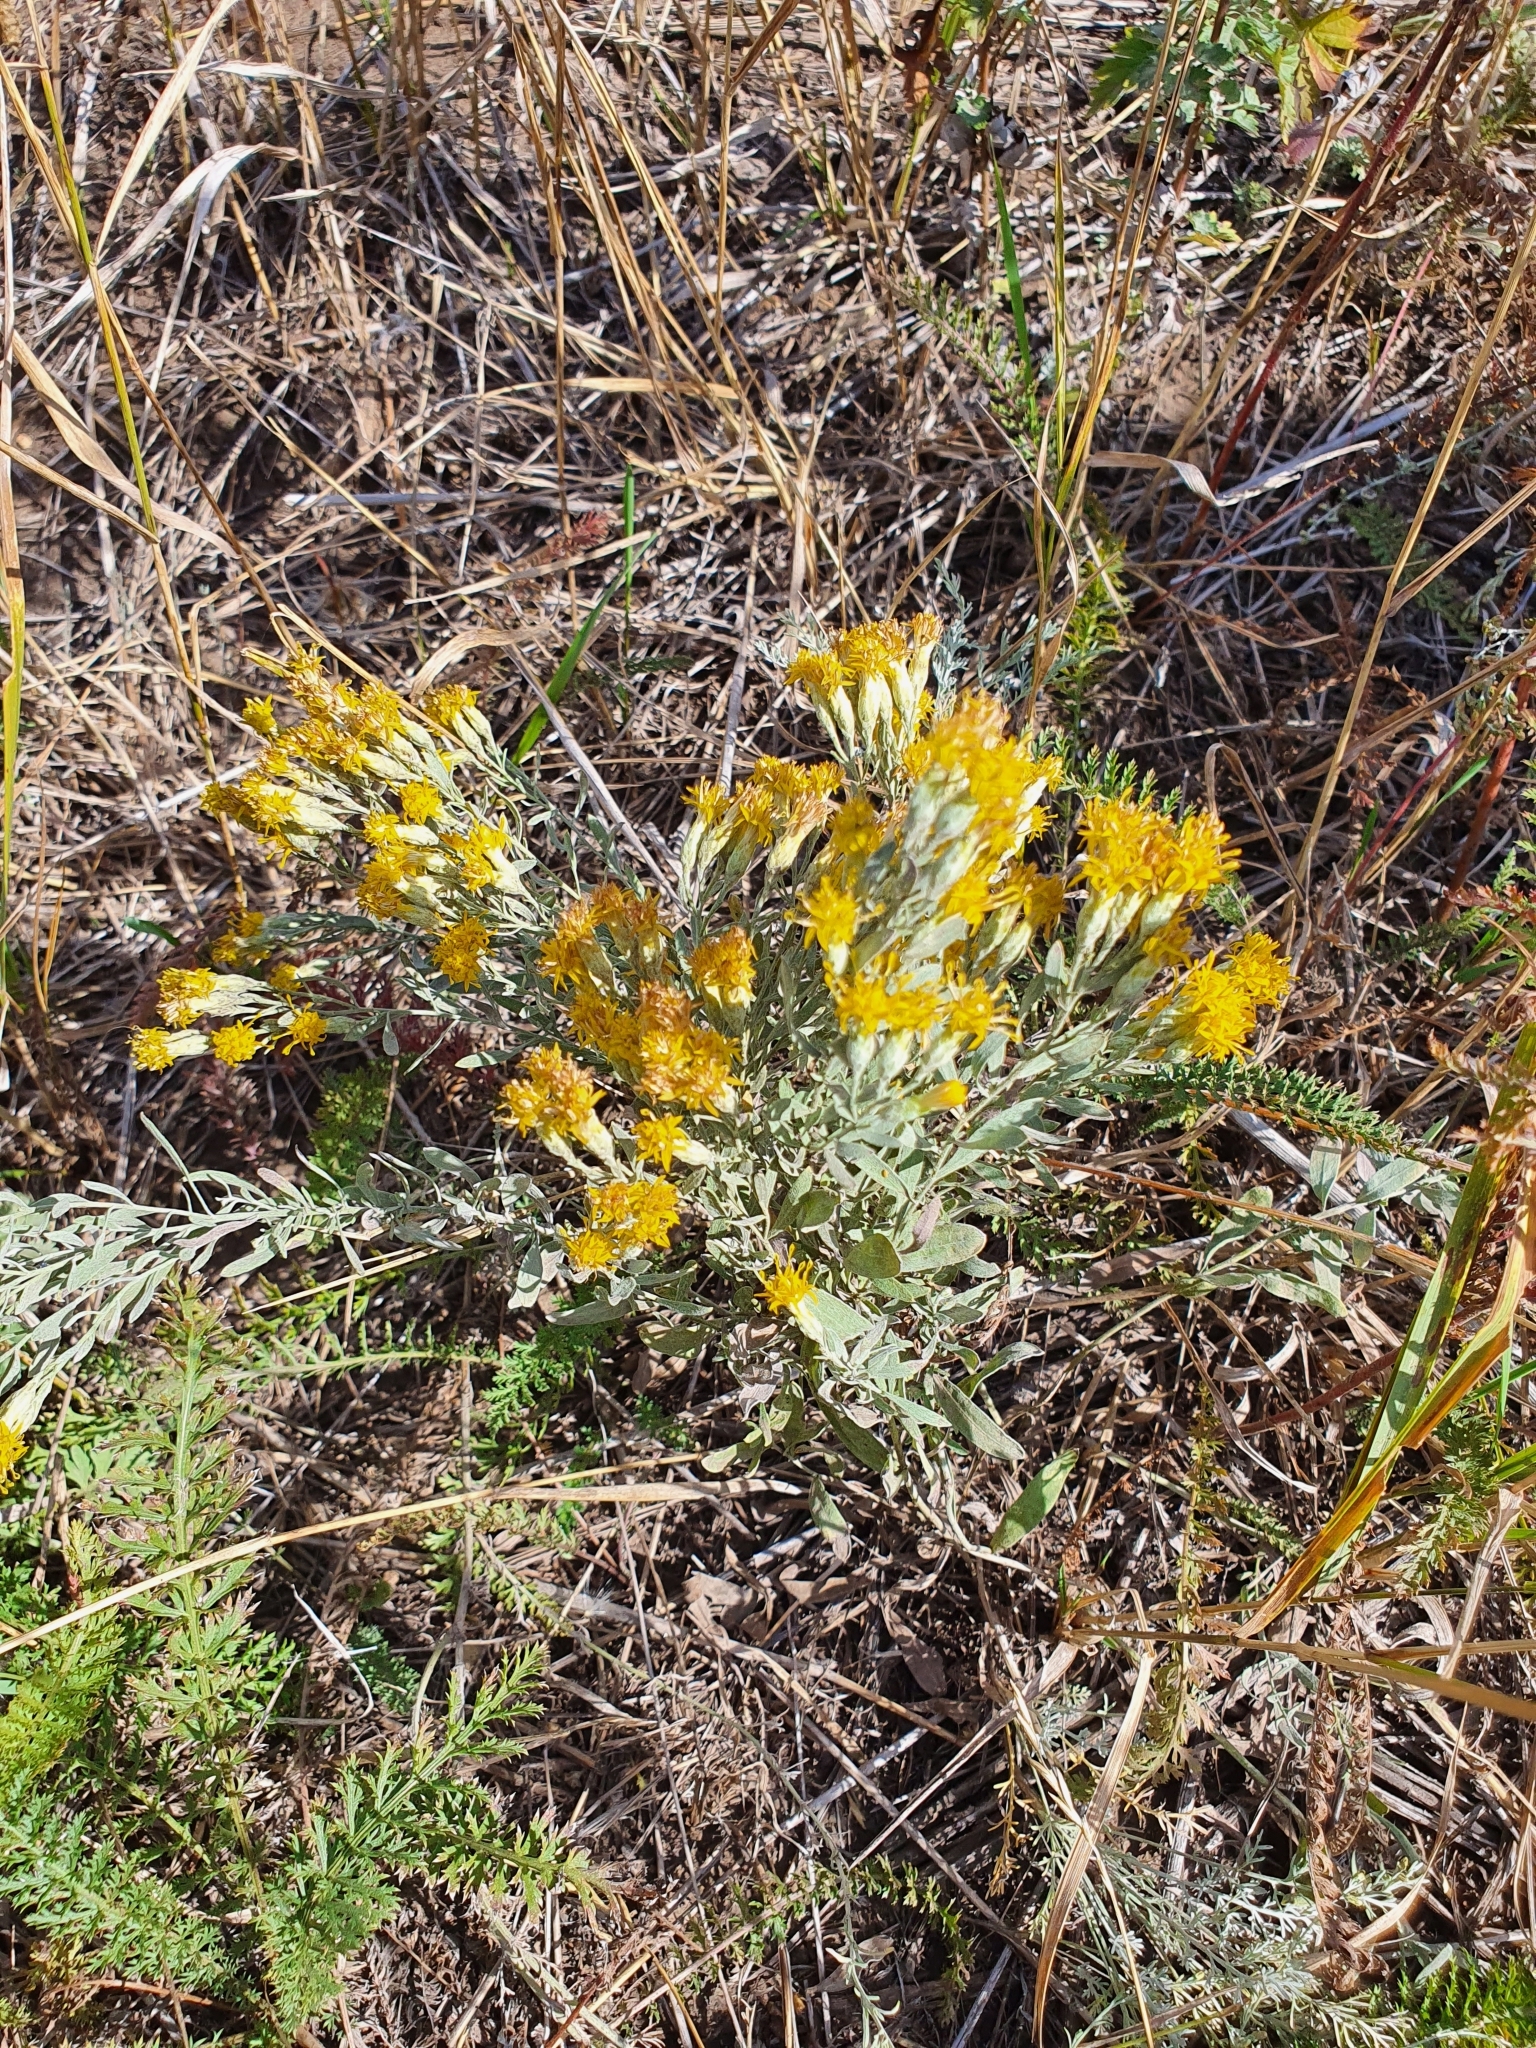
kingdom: Plantae
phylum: Tracheophyta
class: Magnoliopsida
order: Asterales
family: Asteraceae
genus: Galatella
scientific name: Galatella villosa
